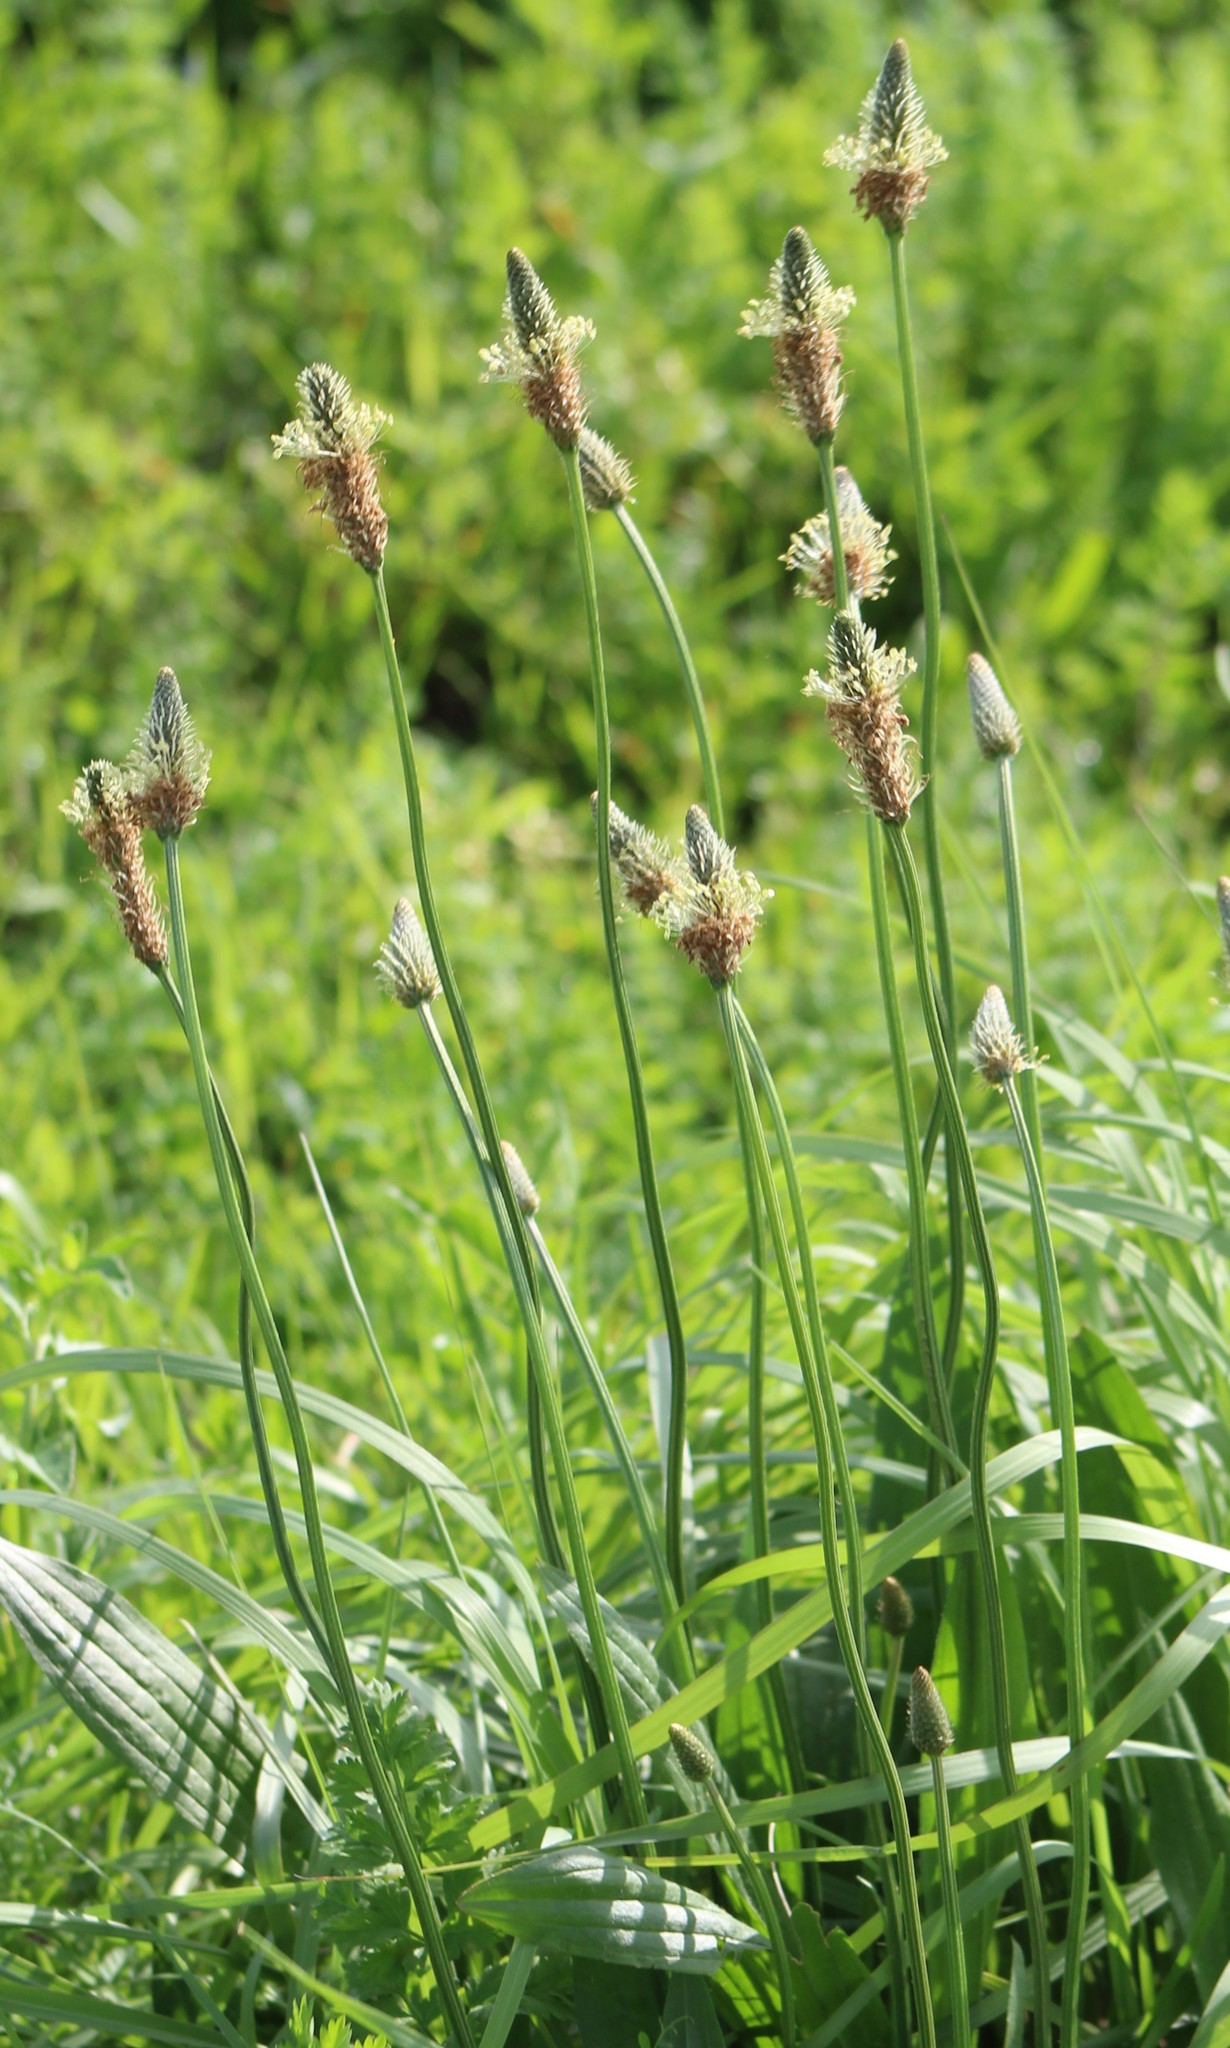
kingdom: Plantae
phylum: Tracheophyta
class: Magnoliopsida
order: Lamiales
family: Plantaginaceae
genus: Plantago
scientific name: Plantago lanceolata
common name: Ribwort plantain
